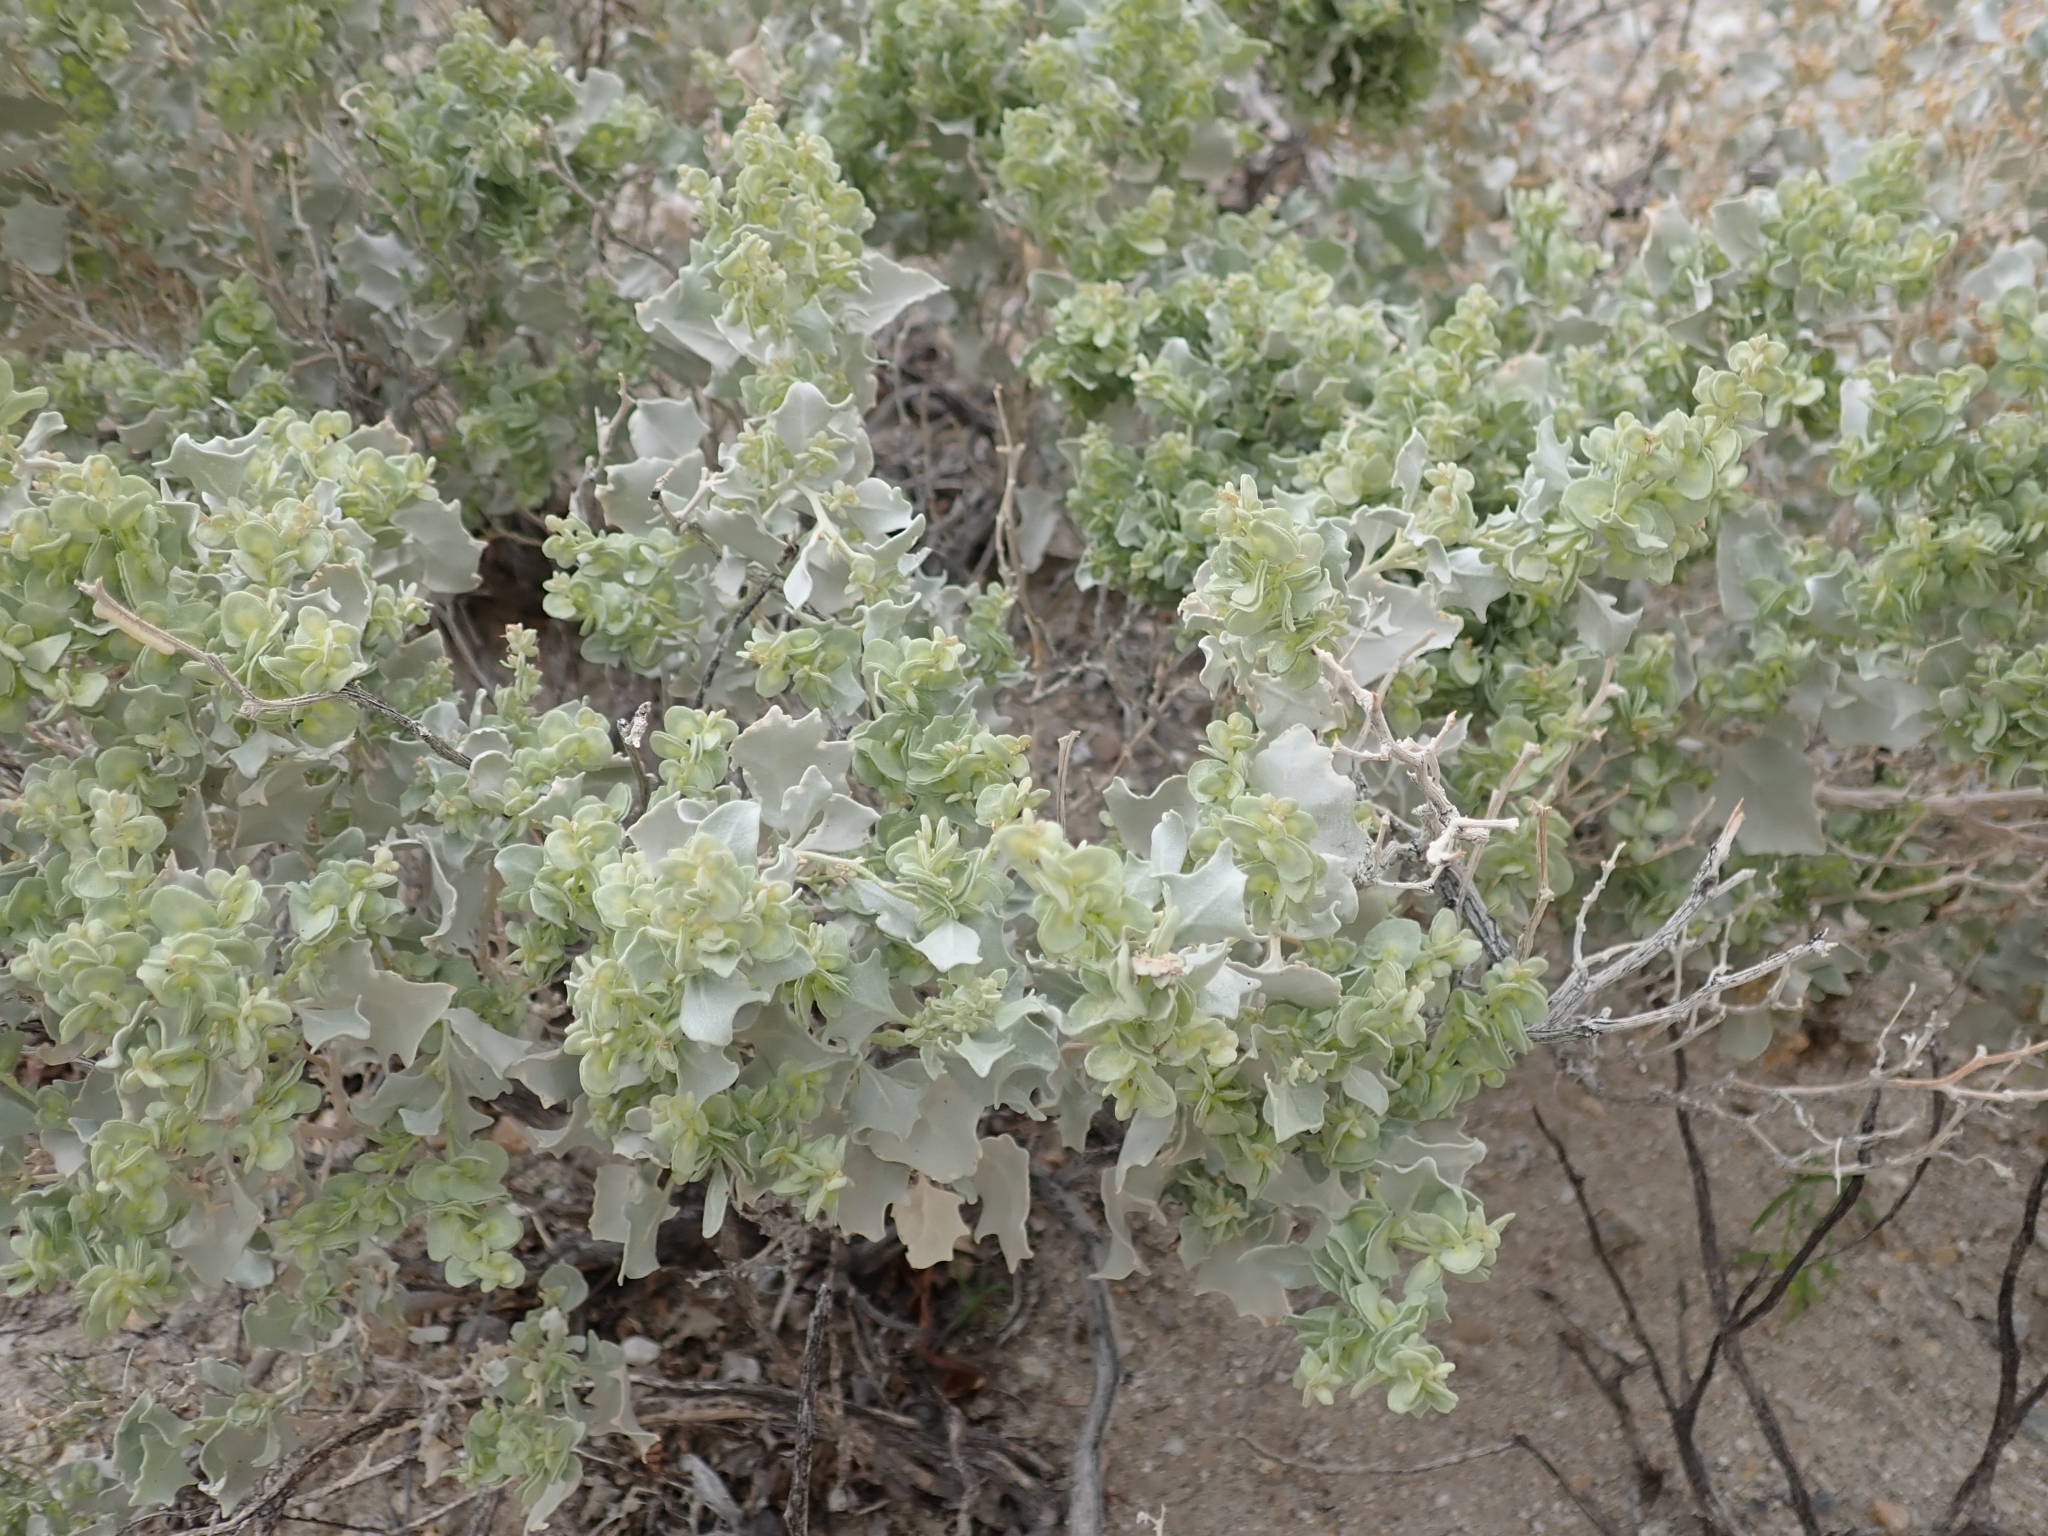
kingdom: Plantae
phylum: Tracheophyta
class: Magnoliopsida
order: Caryophyllales
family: Amaranthaceae
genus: Atriplex
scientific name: Atriplex hymenelytra
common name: Desert-holly
